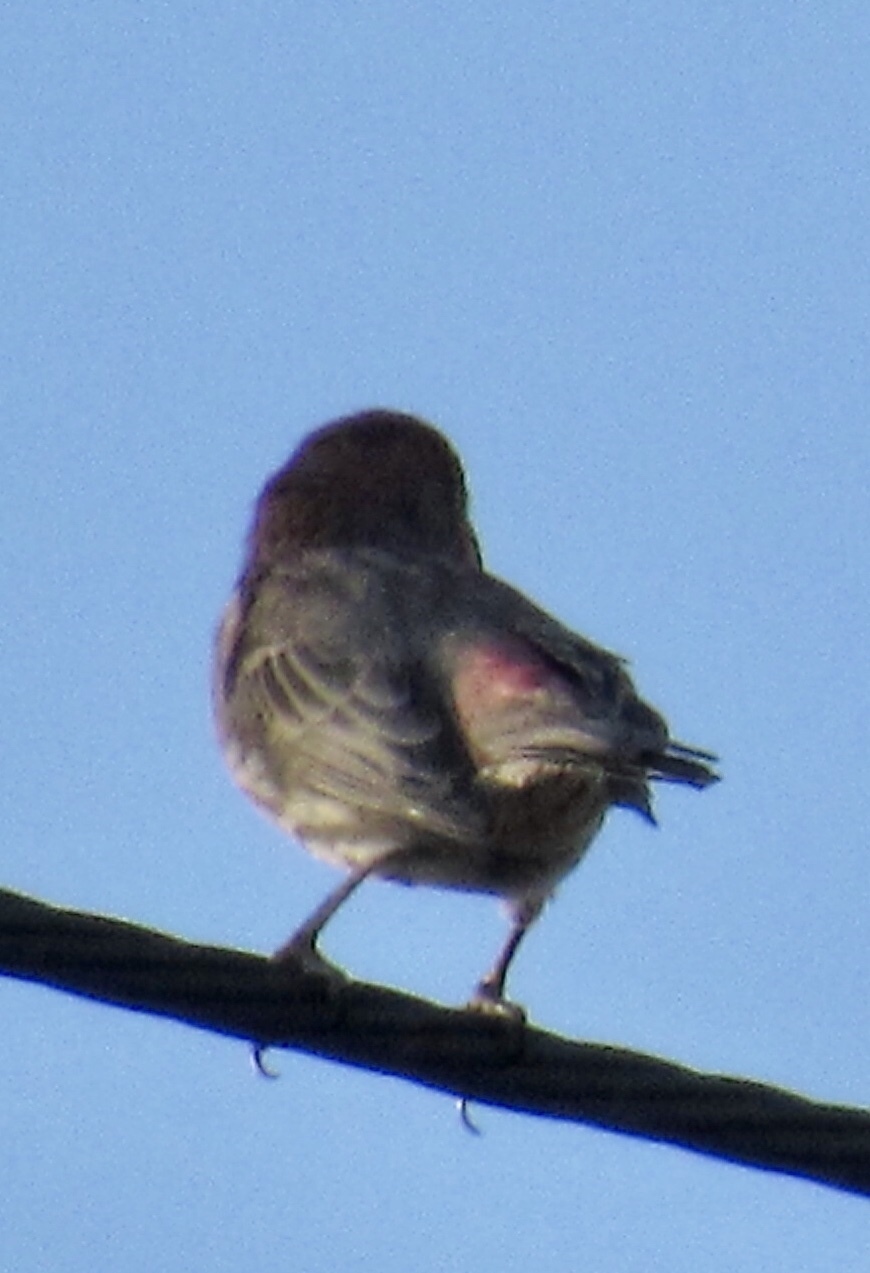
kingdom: Animalia
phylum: Chordata
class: Aves
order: Passeriformes
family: Fringillidae
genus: Haemorhous
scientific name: Haemorhous mexicanus
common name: House finch
